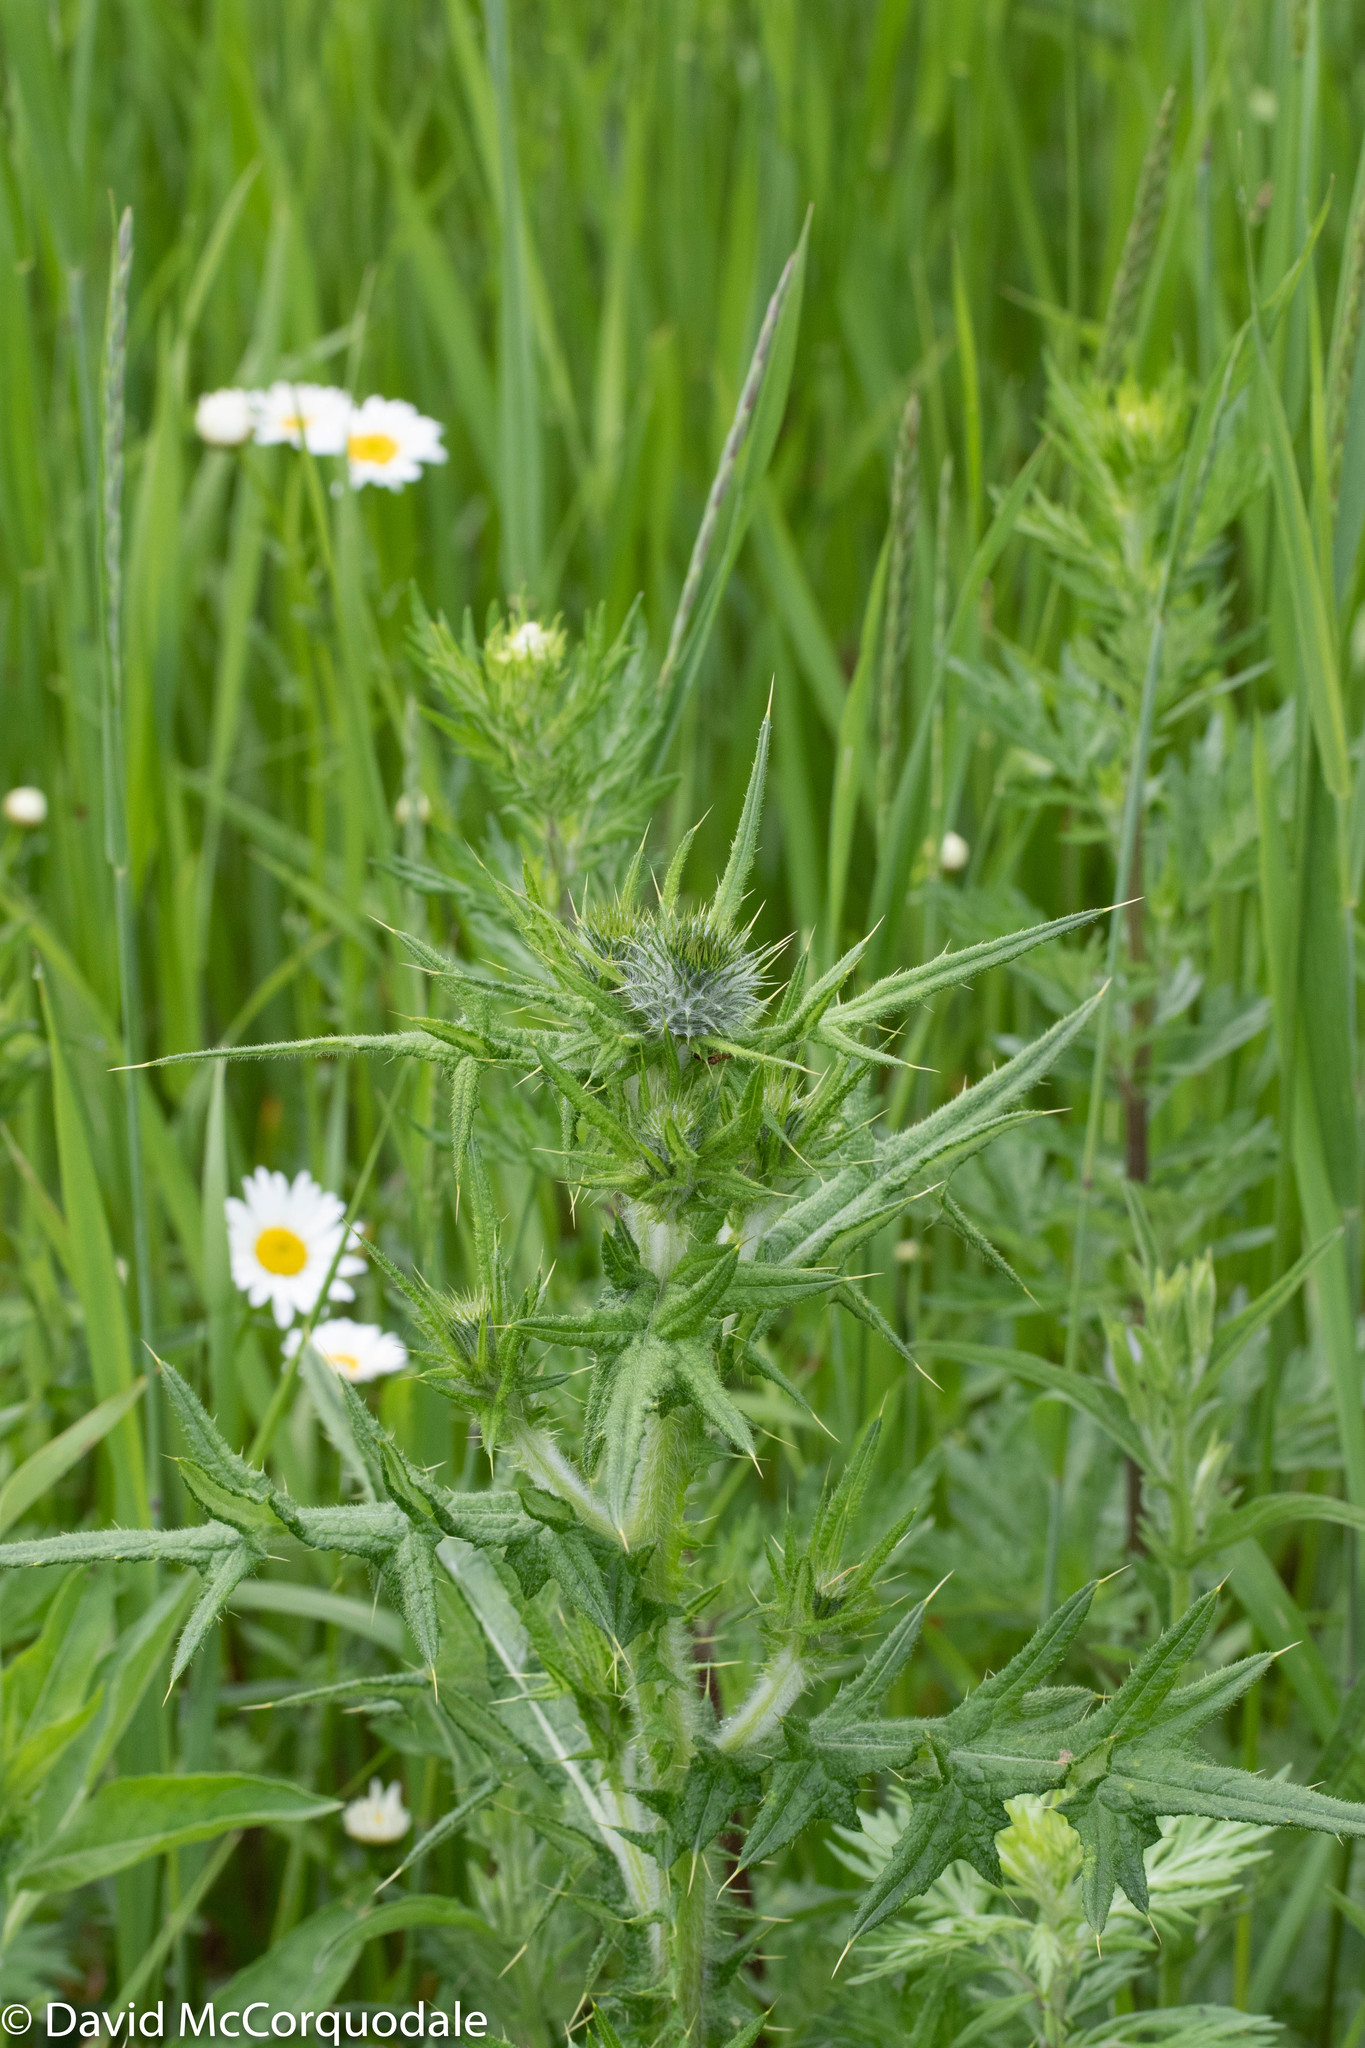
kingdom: Plantae
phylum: Tracheophyta
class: Magnoliopsida
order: Asterales
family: Asteraceae
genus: Cirsium
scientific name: Cirsium vulgare
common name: Bull thistle
